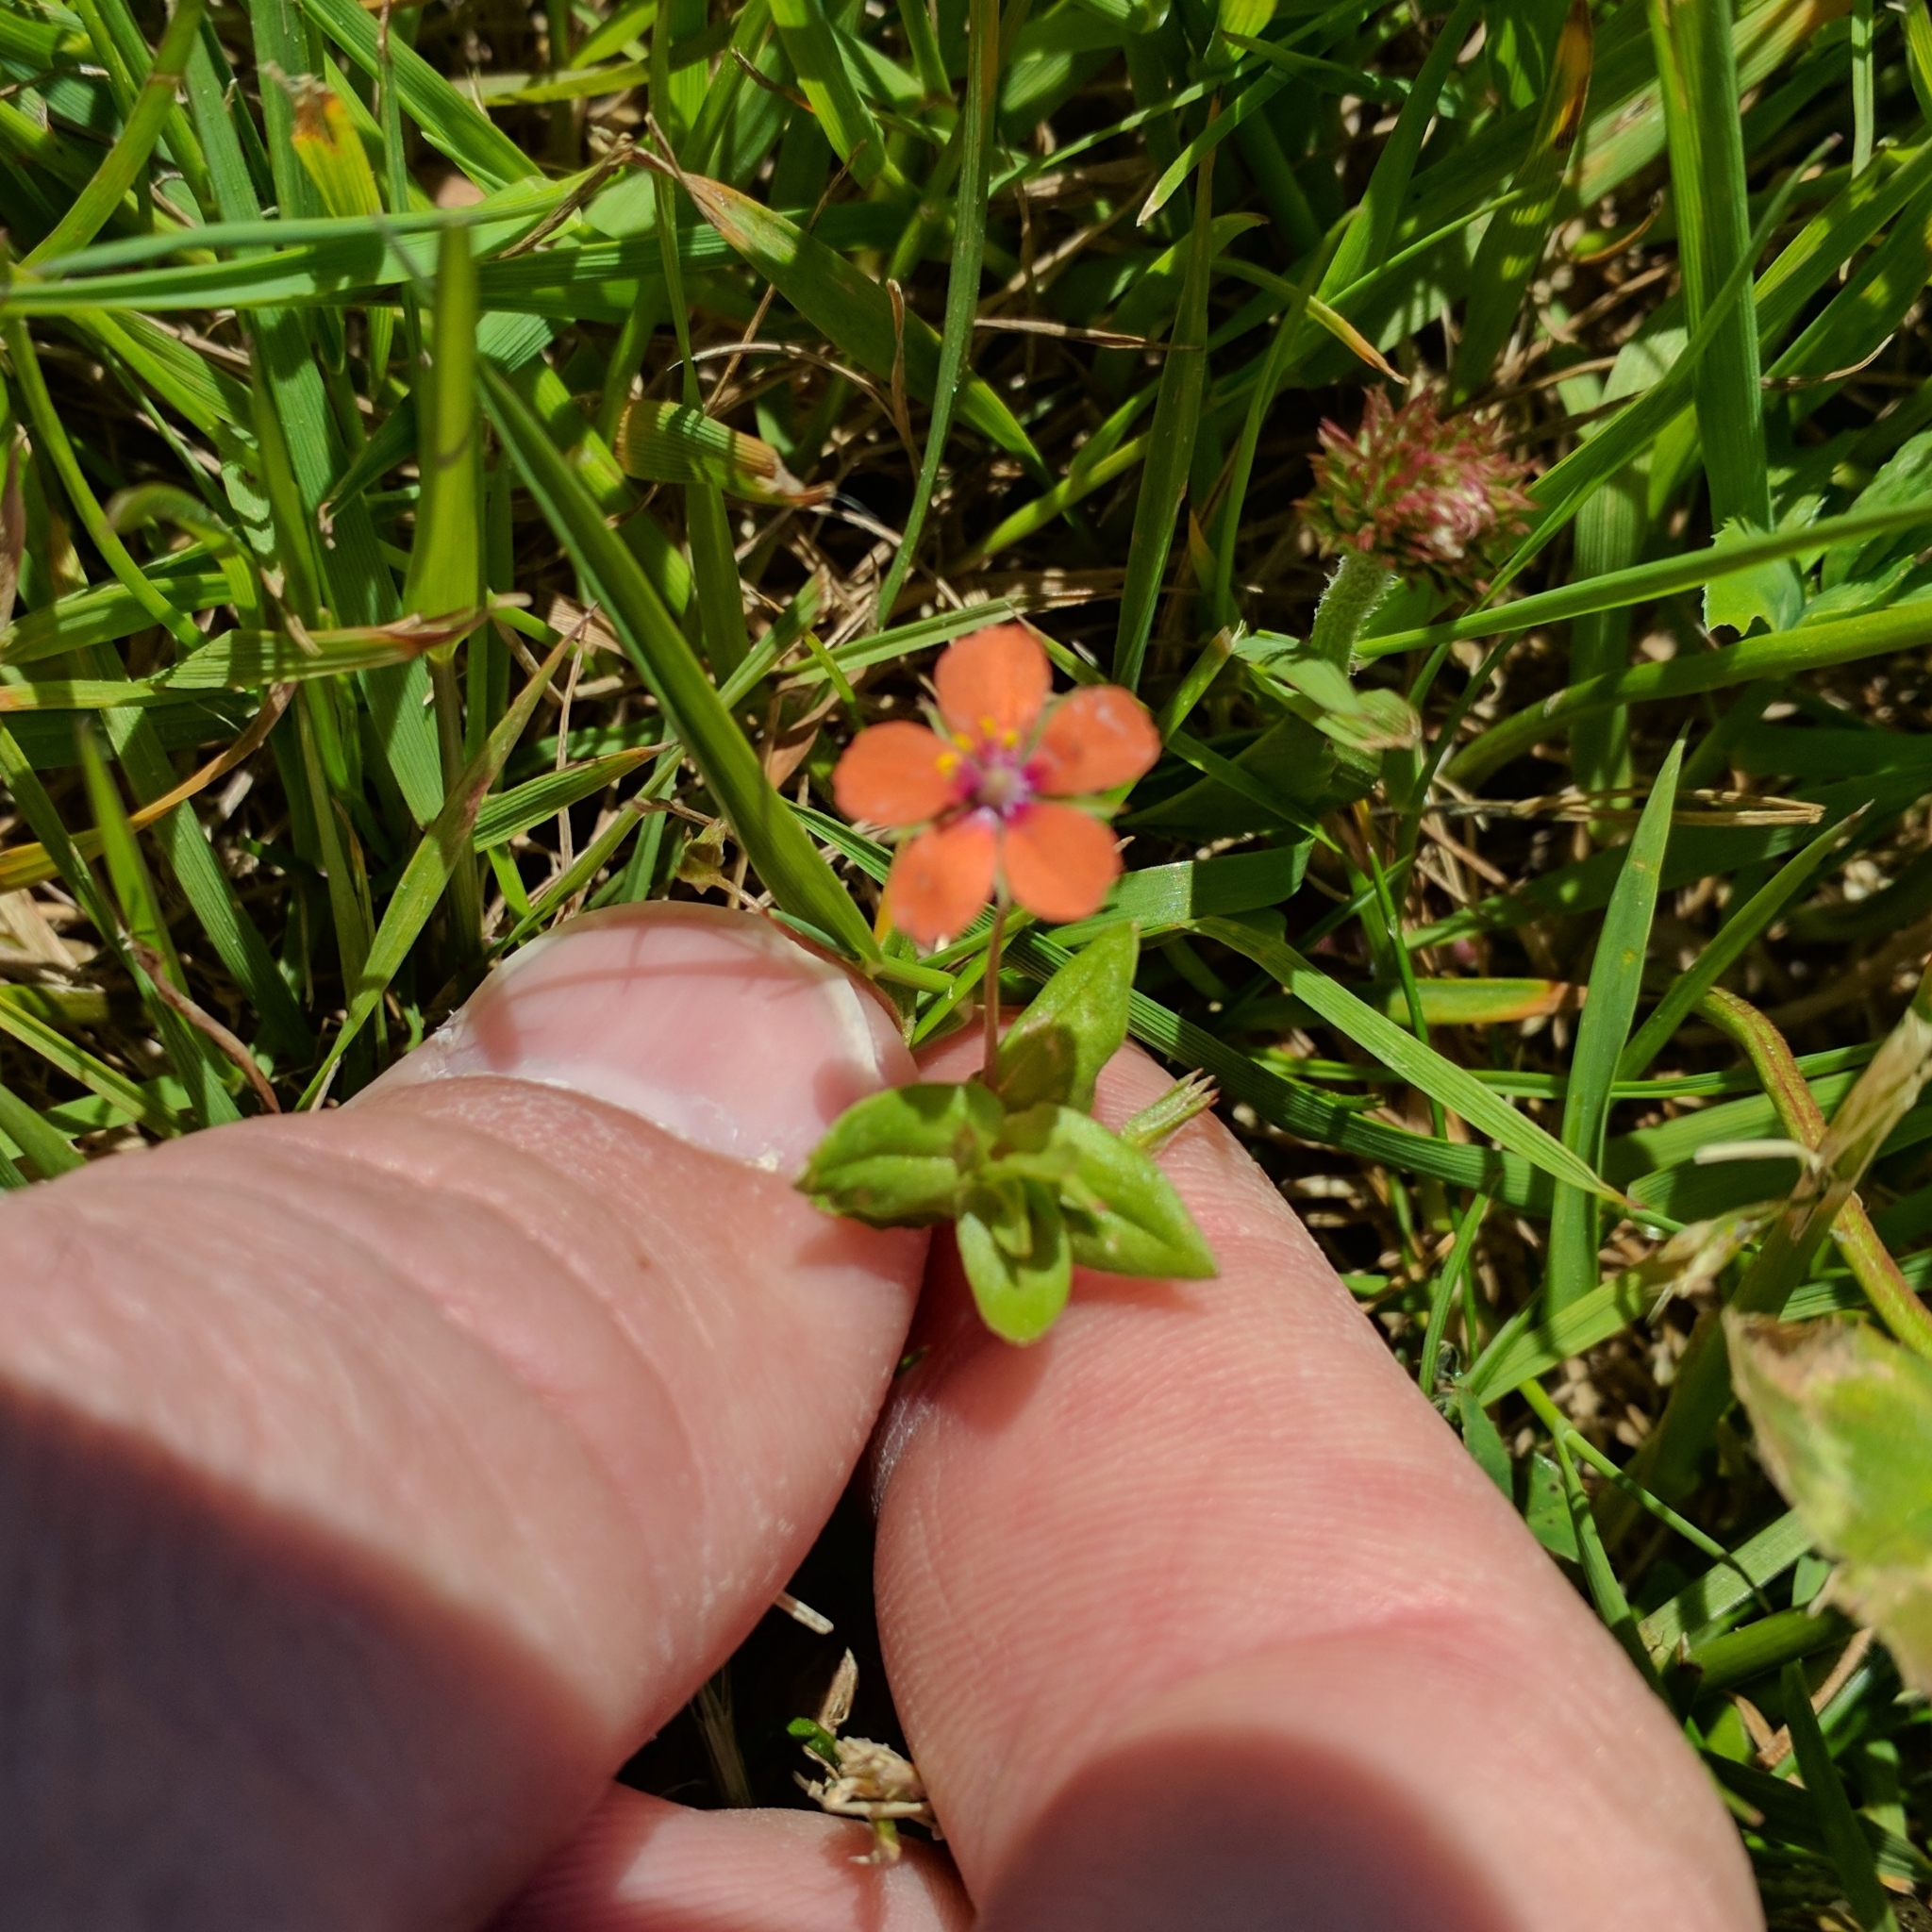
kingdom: Plantae
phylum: Tracheophyta
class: Magnoliopsida
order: Ericales
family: Primulaceae
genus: Lysimachia
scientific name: Lysimachia arvensis
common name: Scarlet pimpernel
